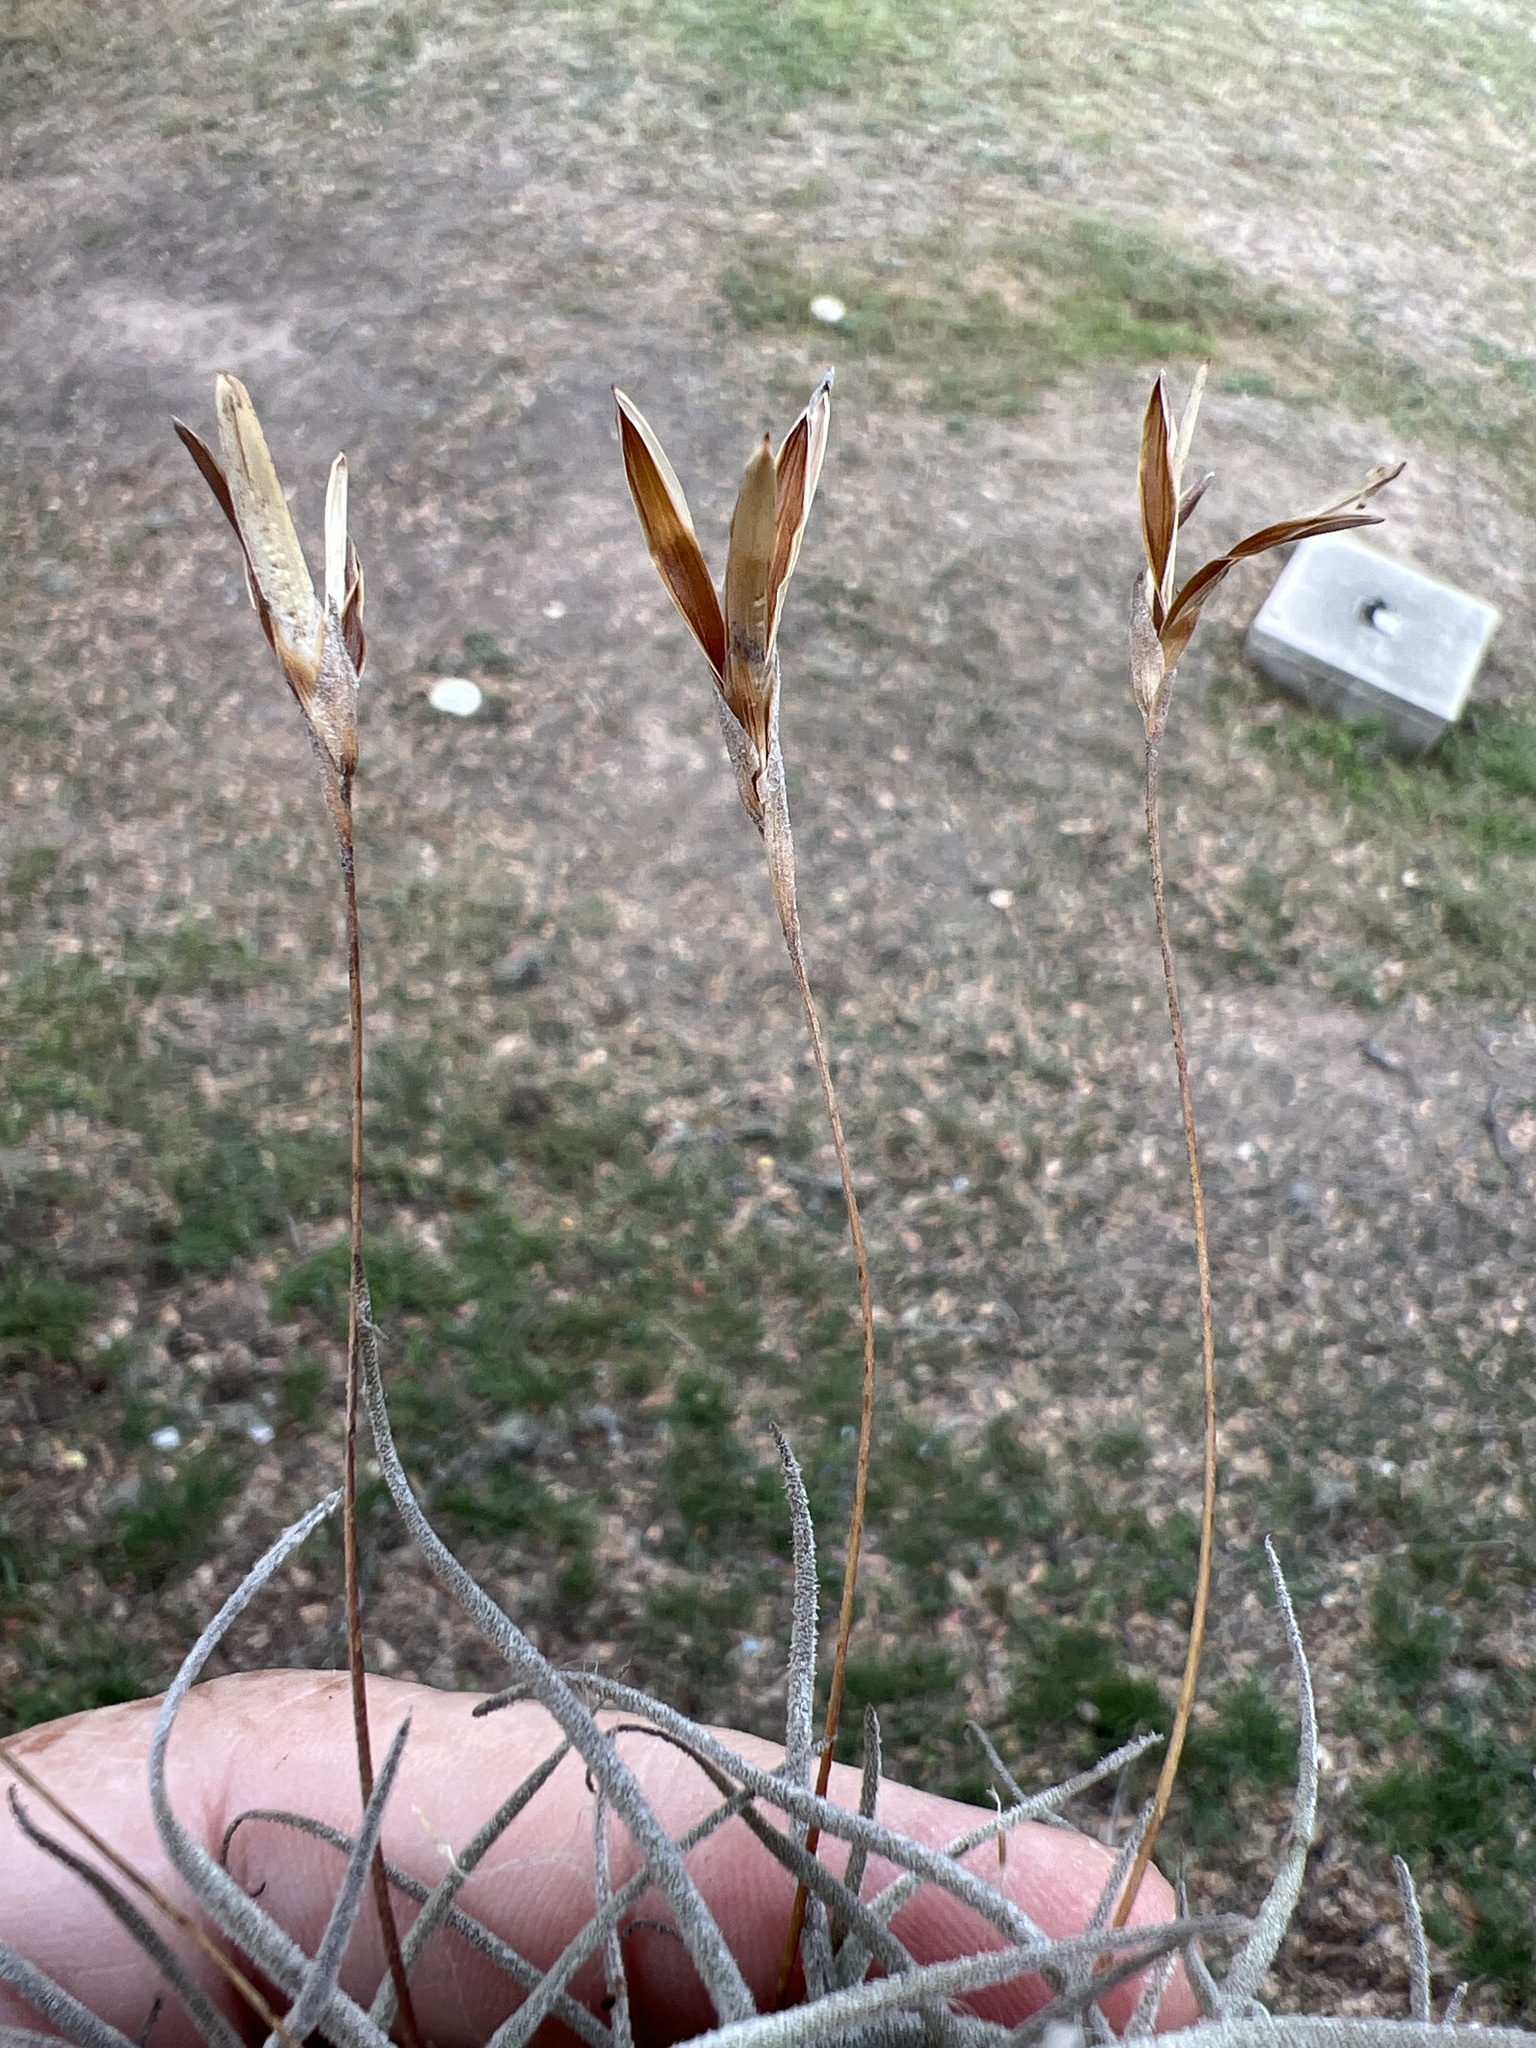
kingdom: Plantae
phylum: Tracheophyta
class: Liliopsida
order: Poales
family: Bromeliaceae
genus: Tillandsia
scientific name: Tillandsia recurvata
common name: Small ballmoss
